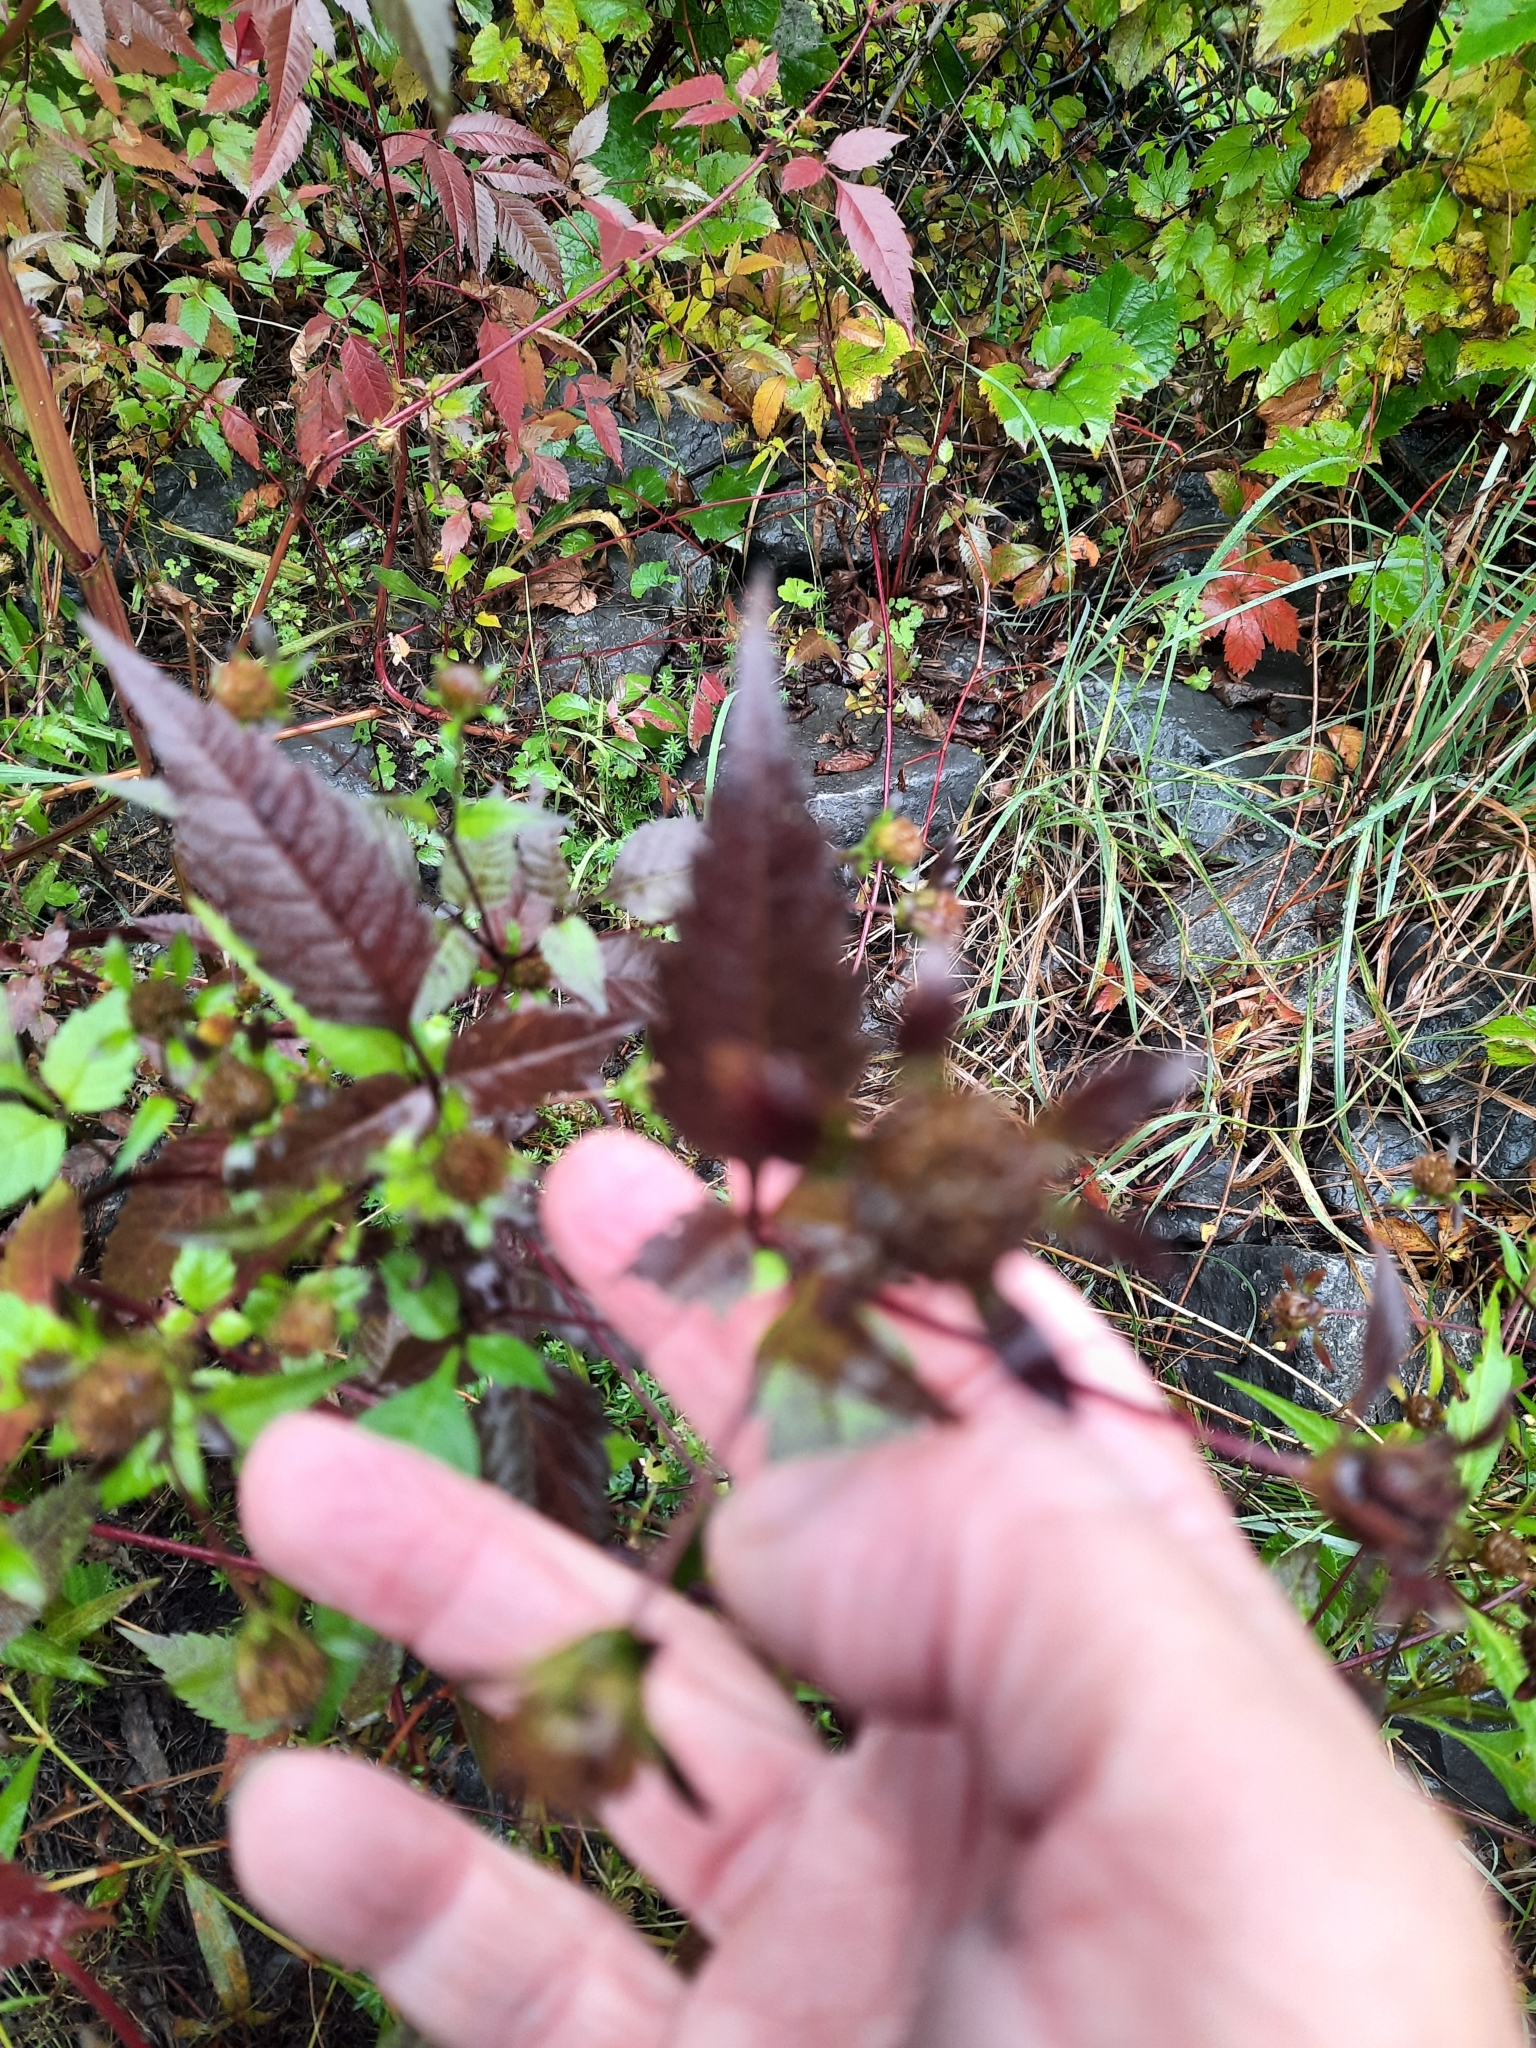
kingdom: Plantae
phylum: Tracheophyta
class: Magnoliopsida
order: Asterales
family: Asteraceae
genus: Bidens
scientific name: Bidens frondosa
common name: Beggarticks
